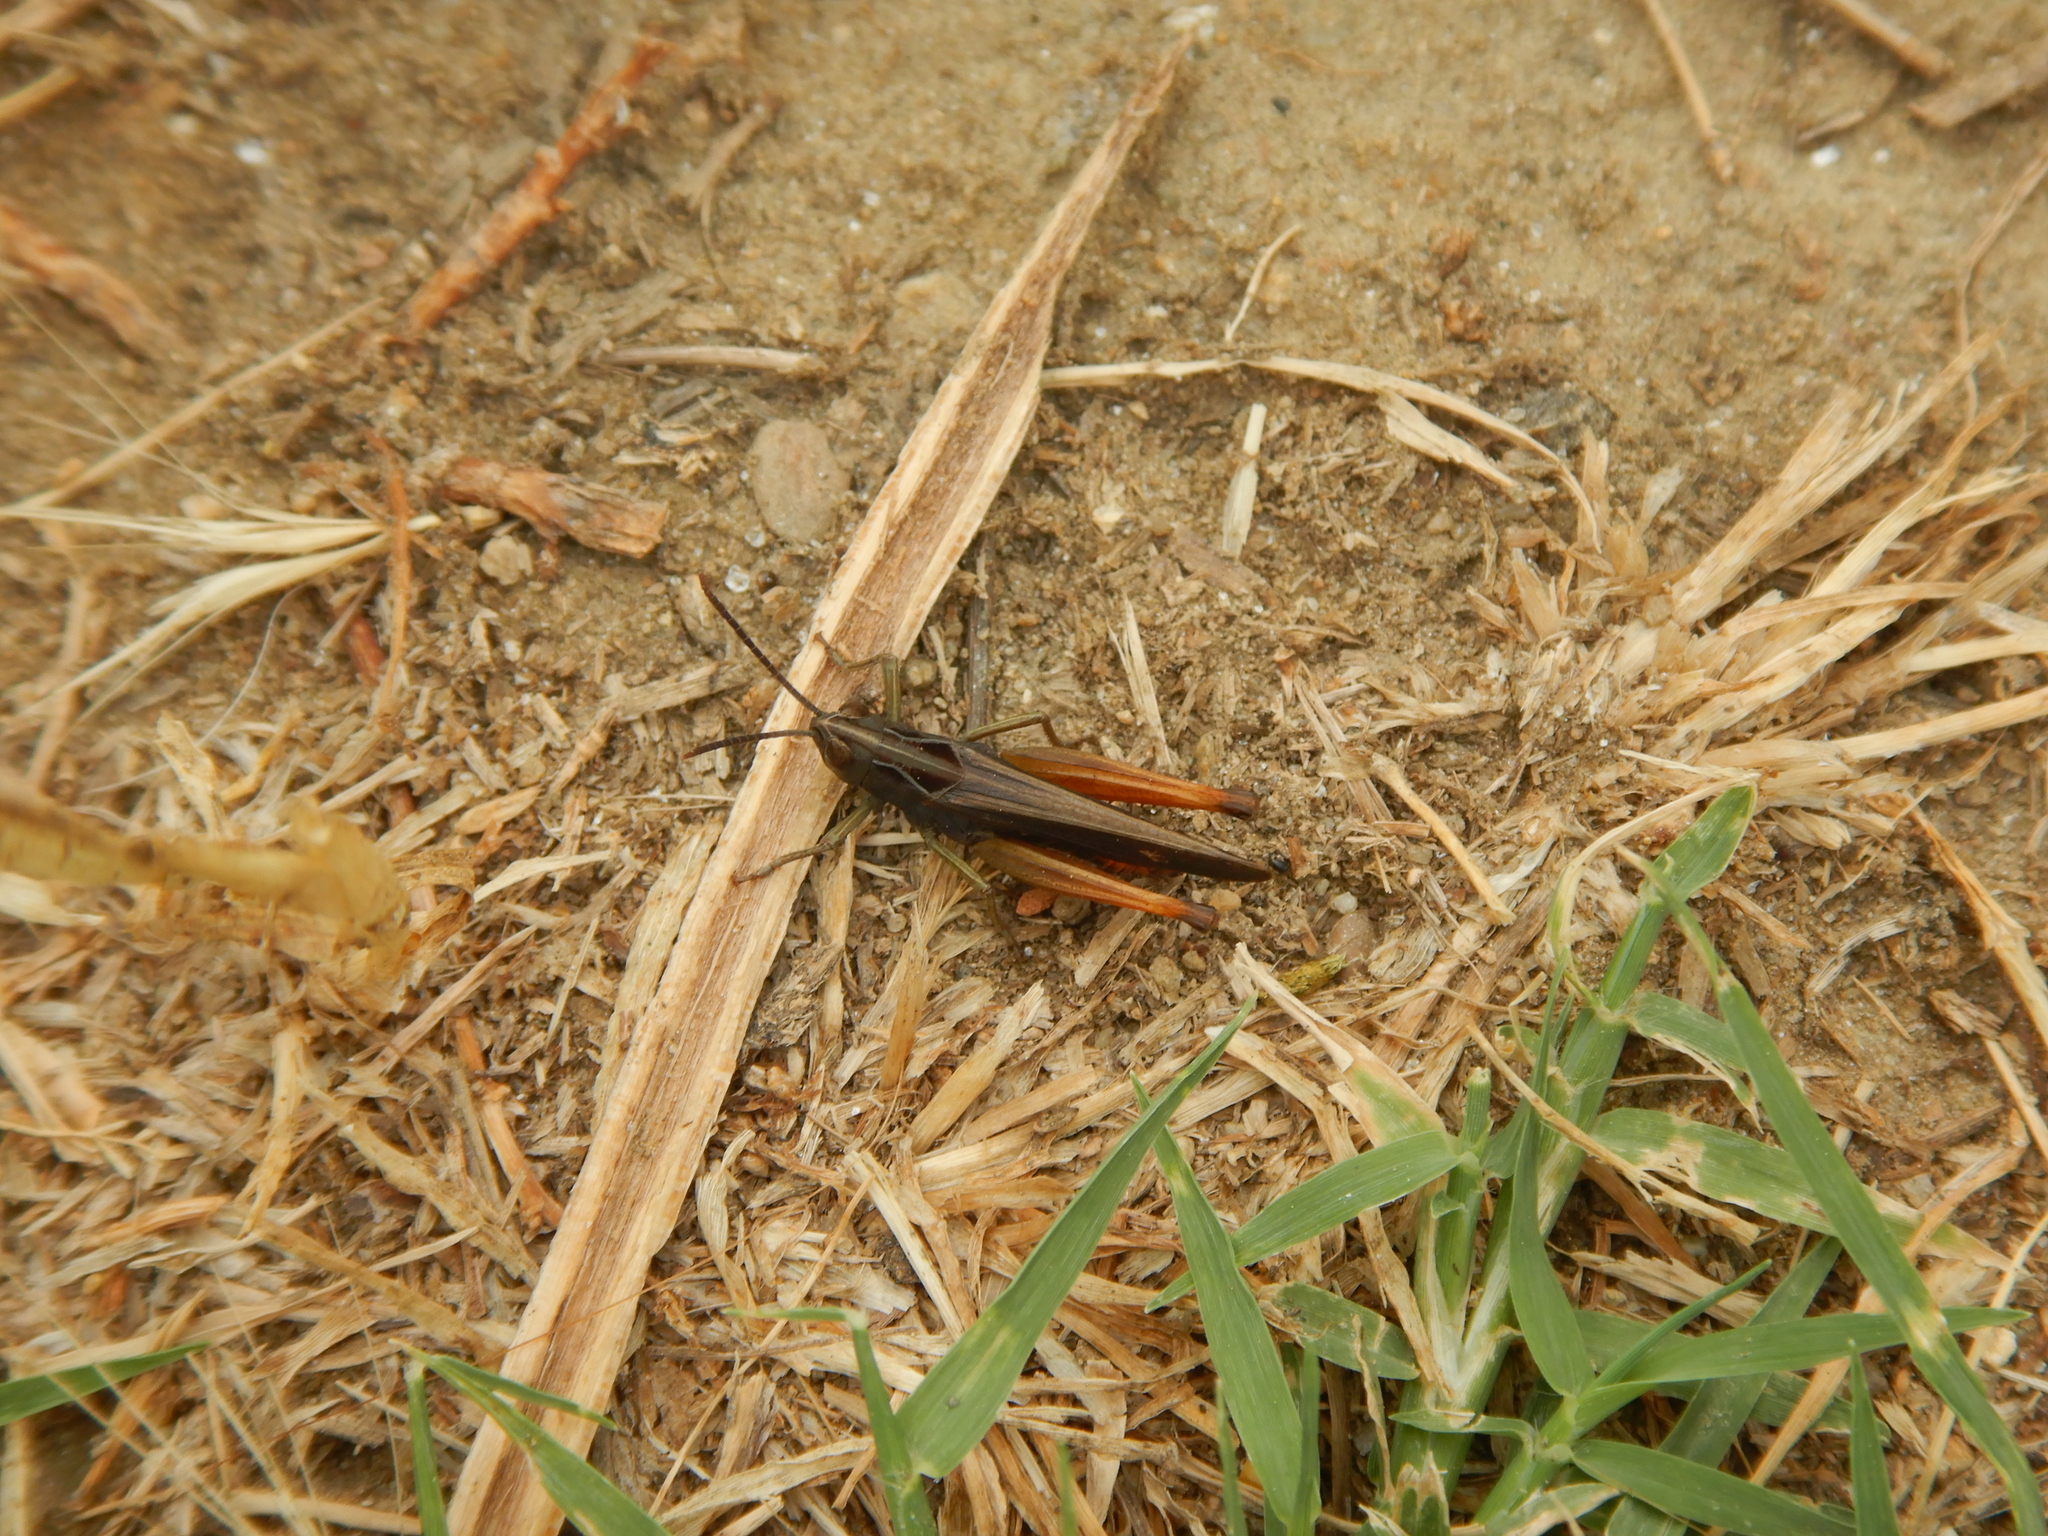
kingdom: Animalia
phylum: Arthropoda
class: Insecta
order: Orthoptera
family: Acrididae
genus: Omocestus
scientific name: Omocestus rufipes
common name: Woodland grasshopper
